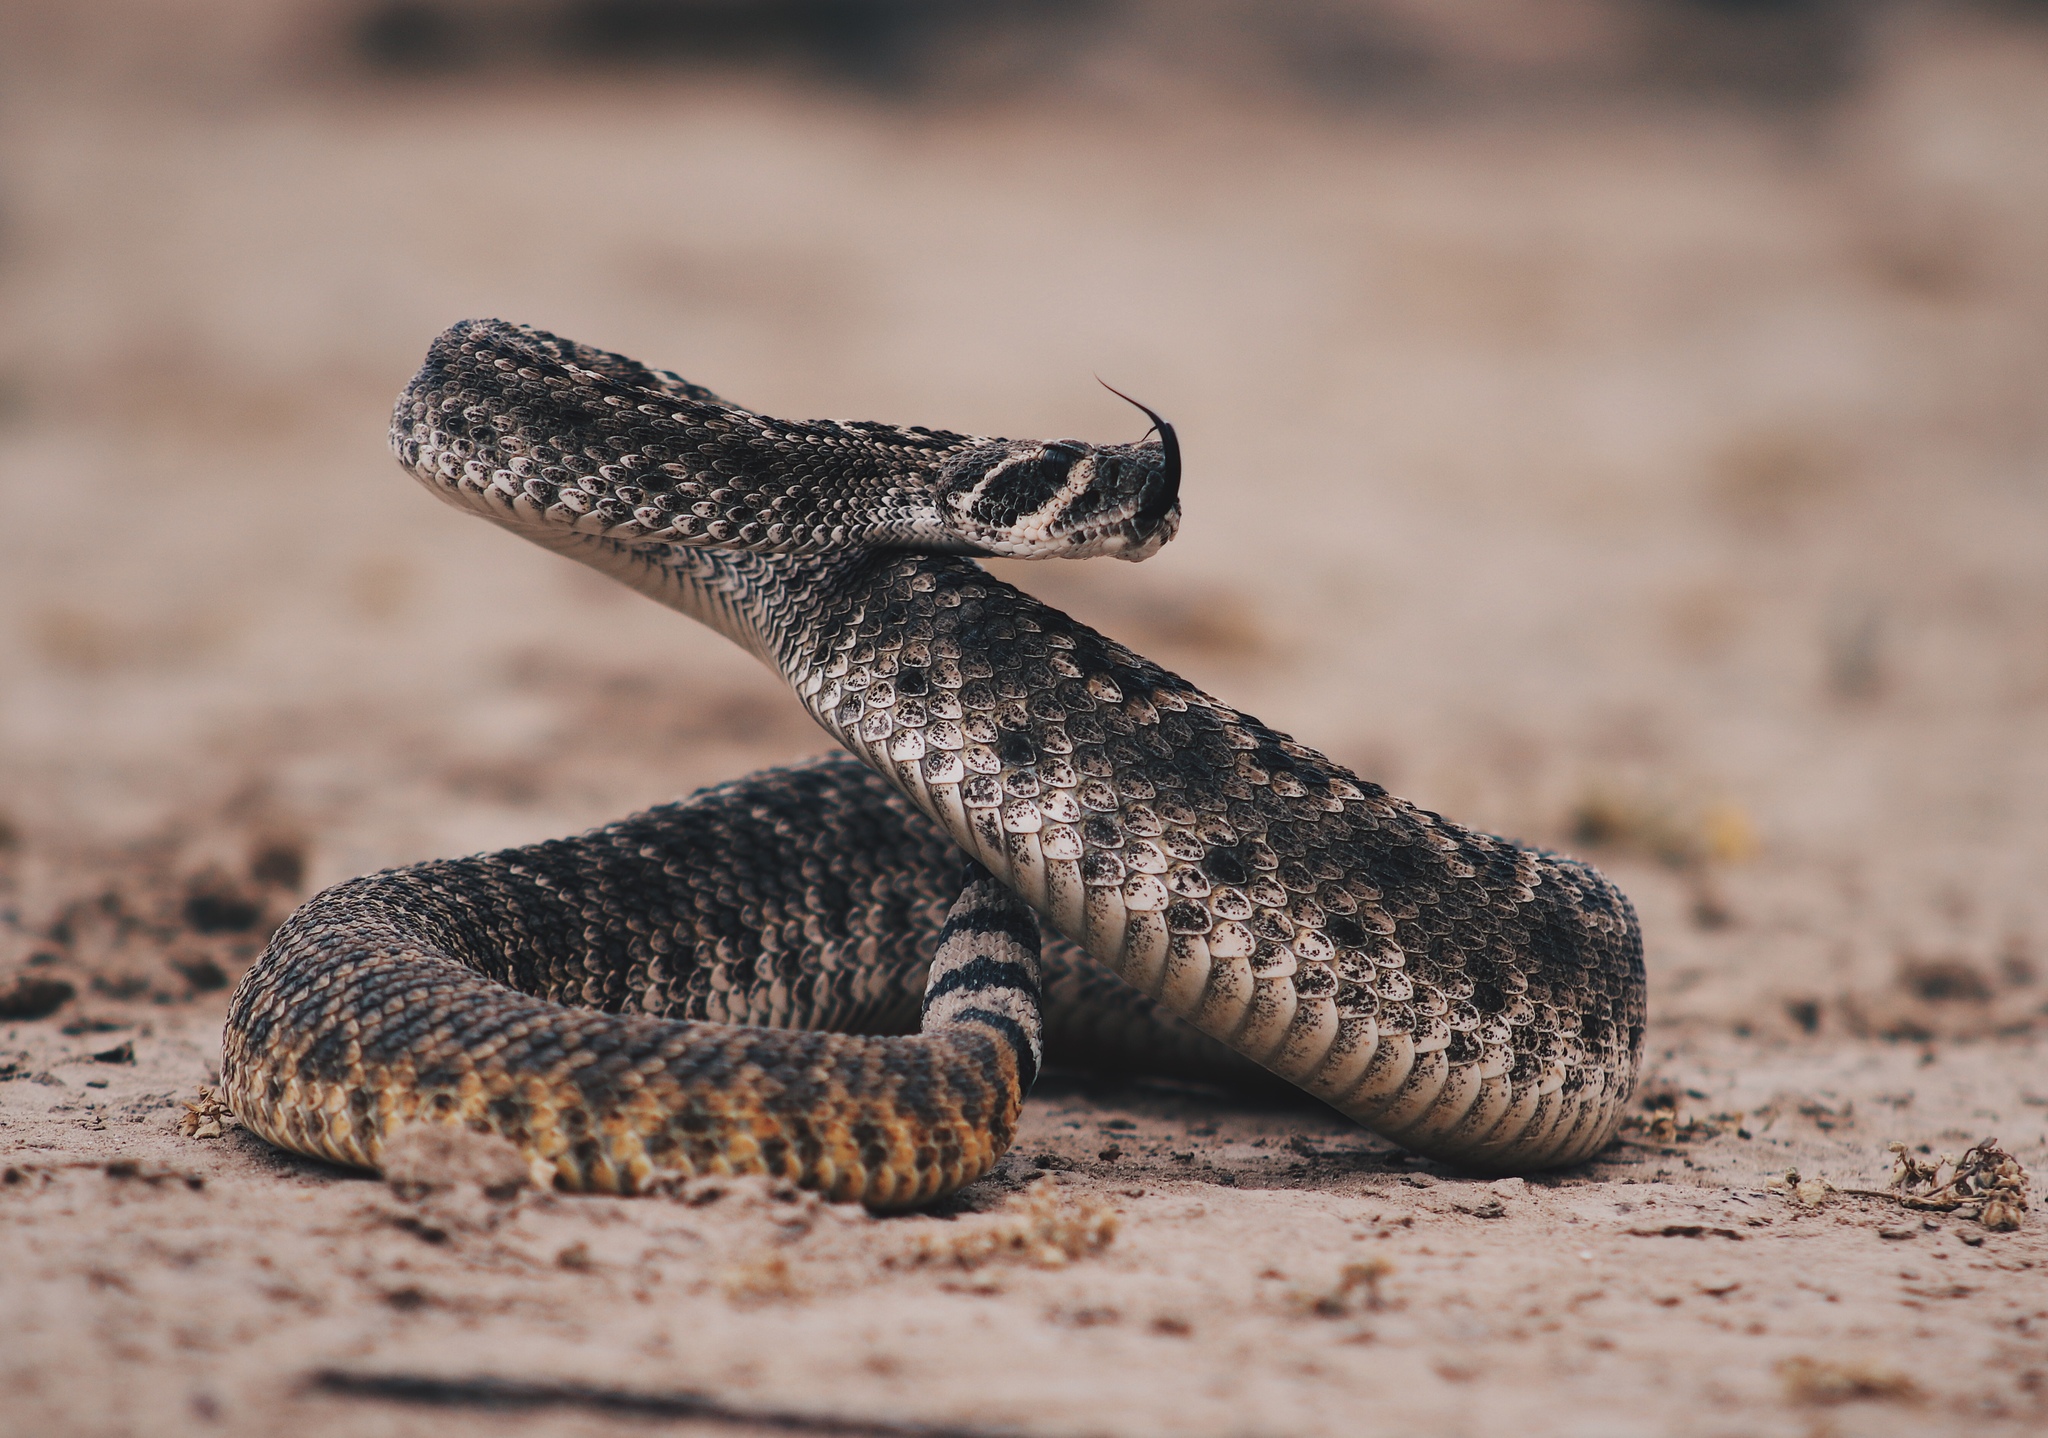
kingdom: Animalia
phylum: Chordata
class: Squamata
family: Viperidae
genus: Crotalus
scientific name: Crotalus atrox
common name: Western diamond-backed rattlesnake
